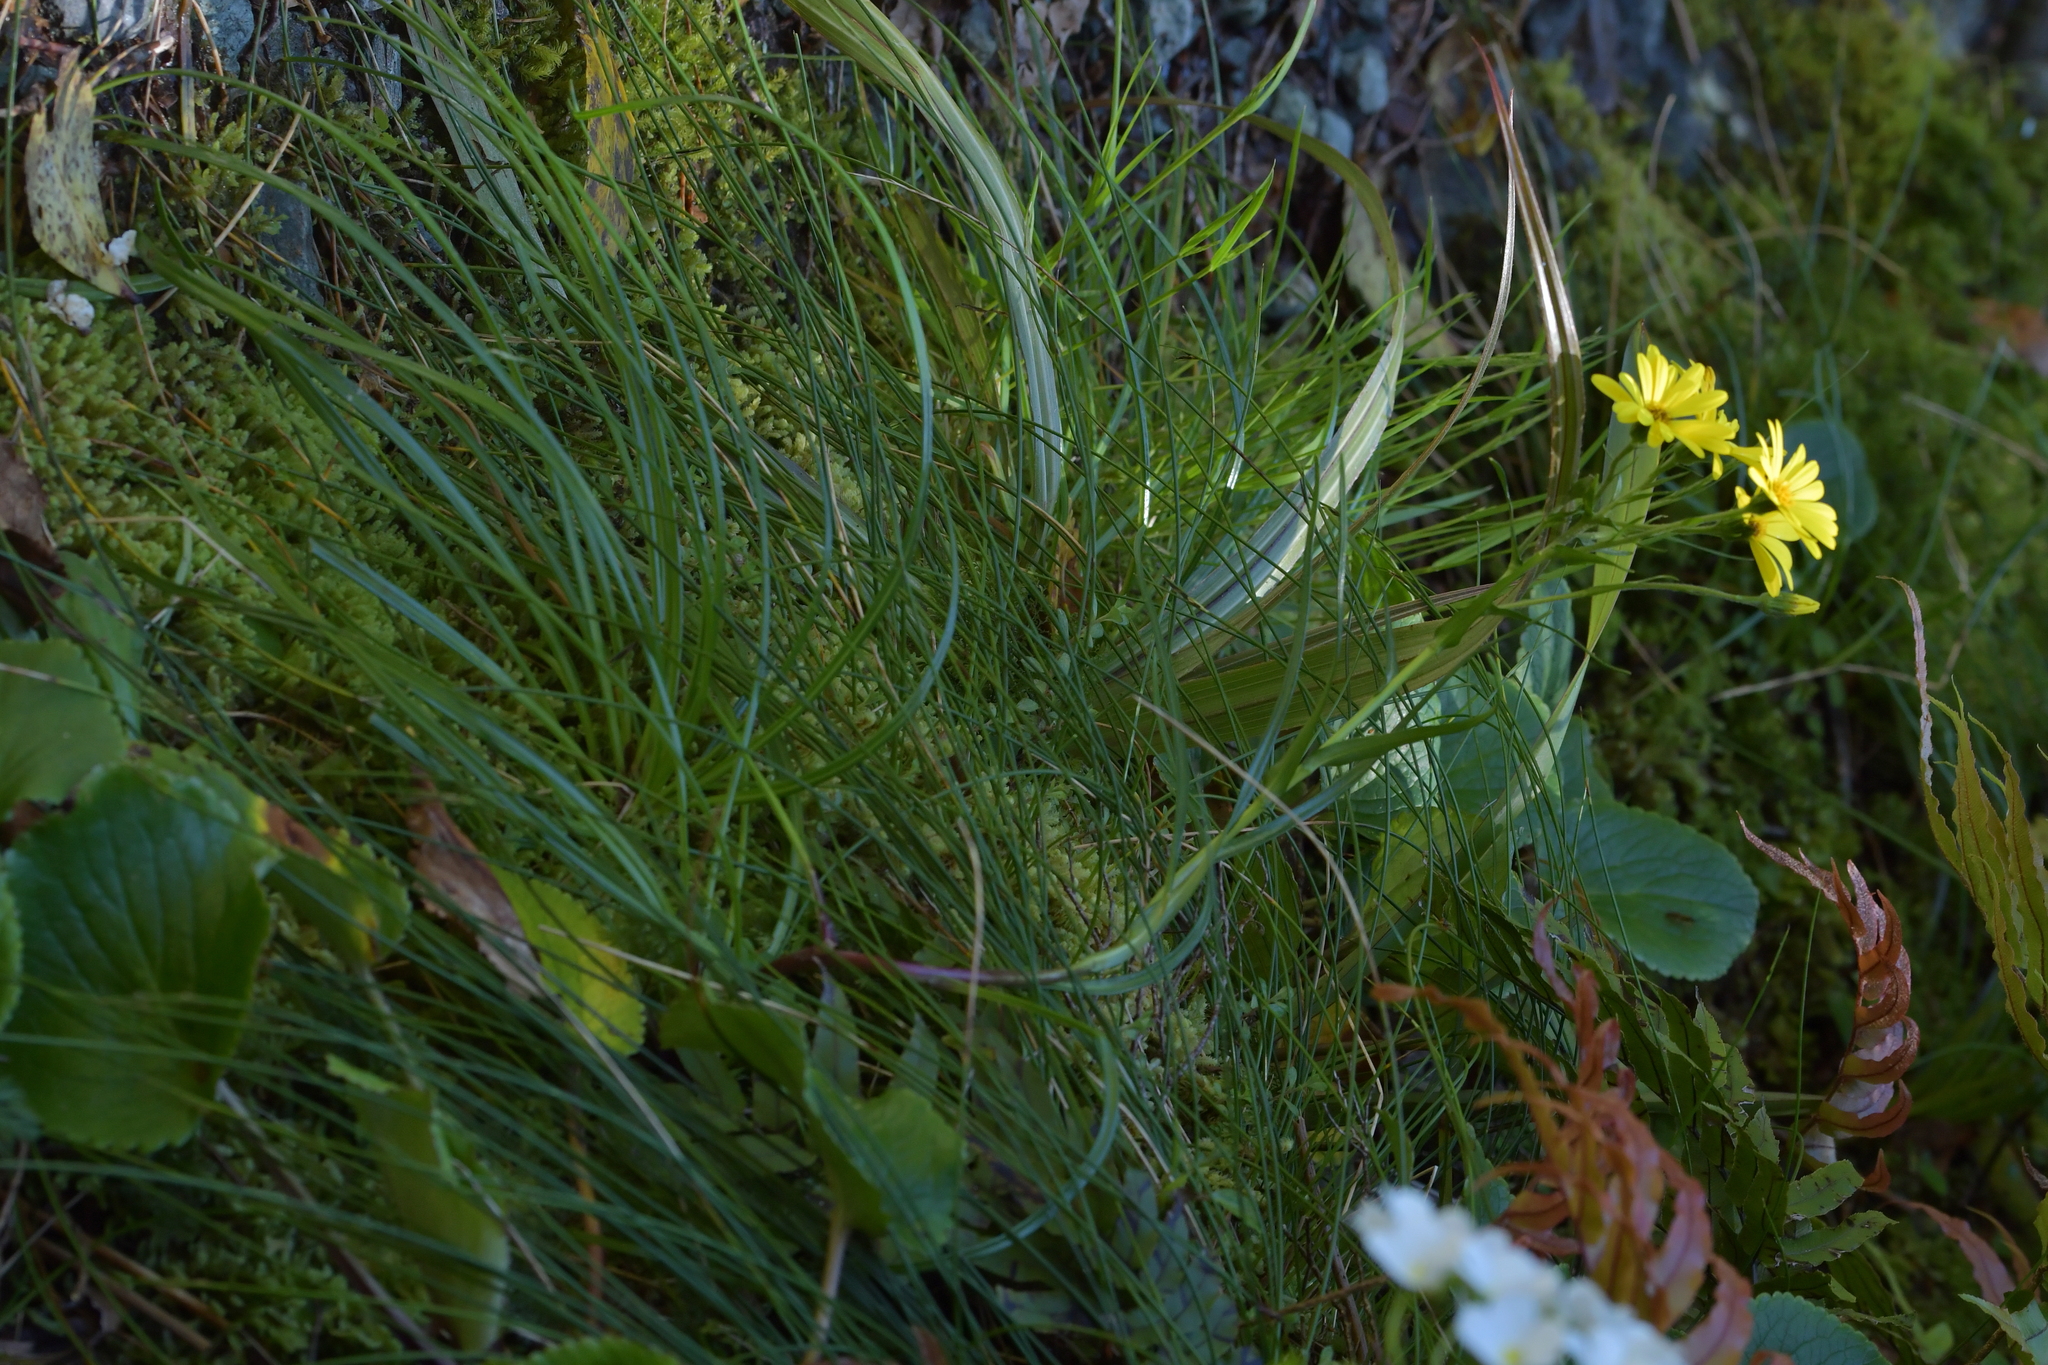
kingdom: Plantae
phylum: Tracheophyta
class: Magnoliopsida
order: Asterales
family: Asteraceae
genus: Dolichoglottis
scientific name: Dolichoglottis lyallii
